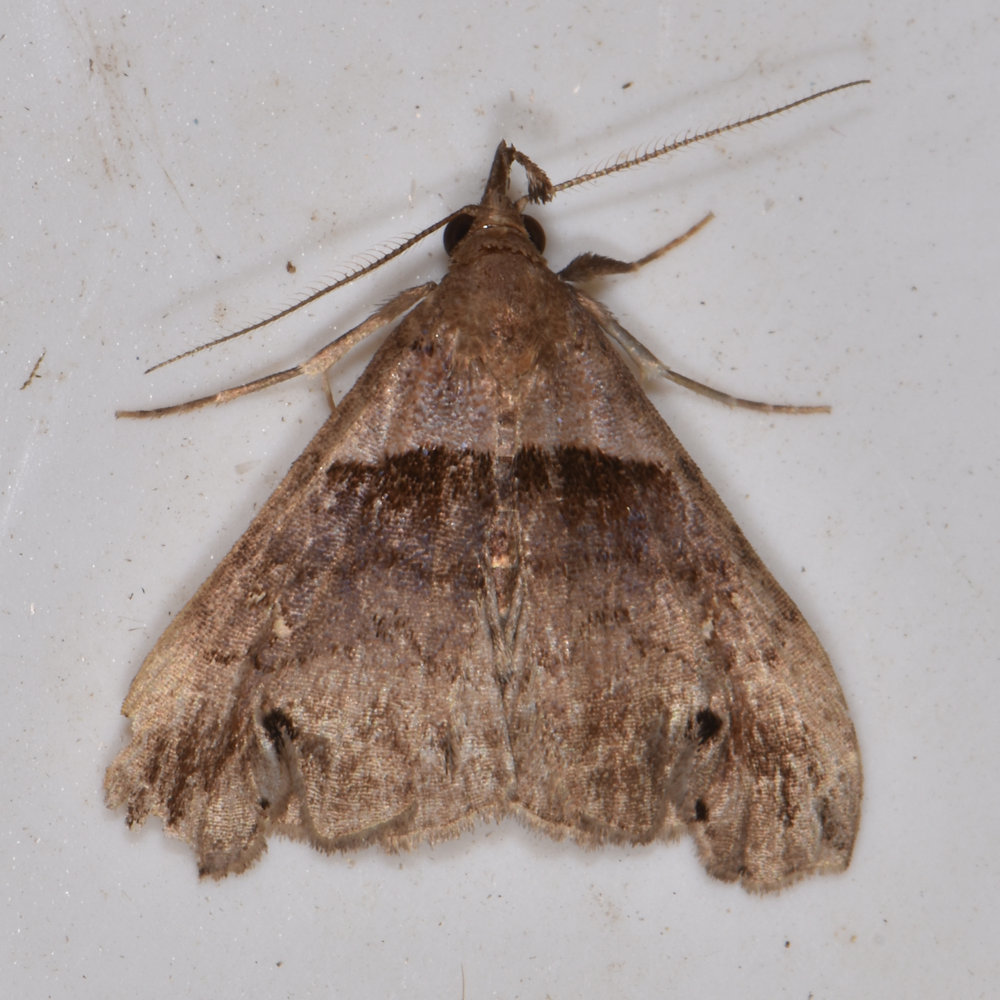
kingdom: Animalia
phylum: Arthropoda
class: Insecta
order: Lepidoptera
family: Erebidae
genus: Lascoria
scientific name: Lascoria ambigualis
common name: Ambiguous moth
